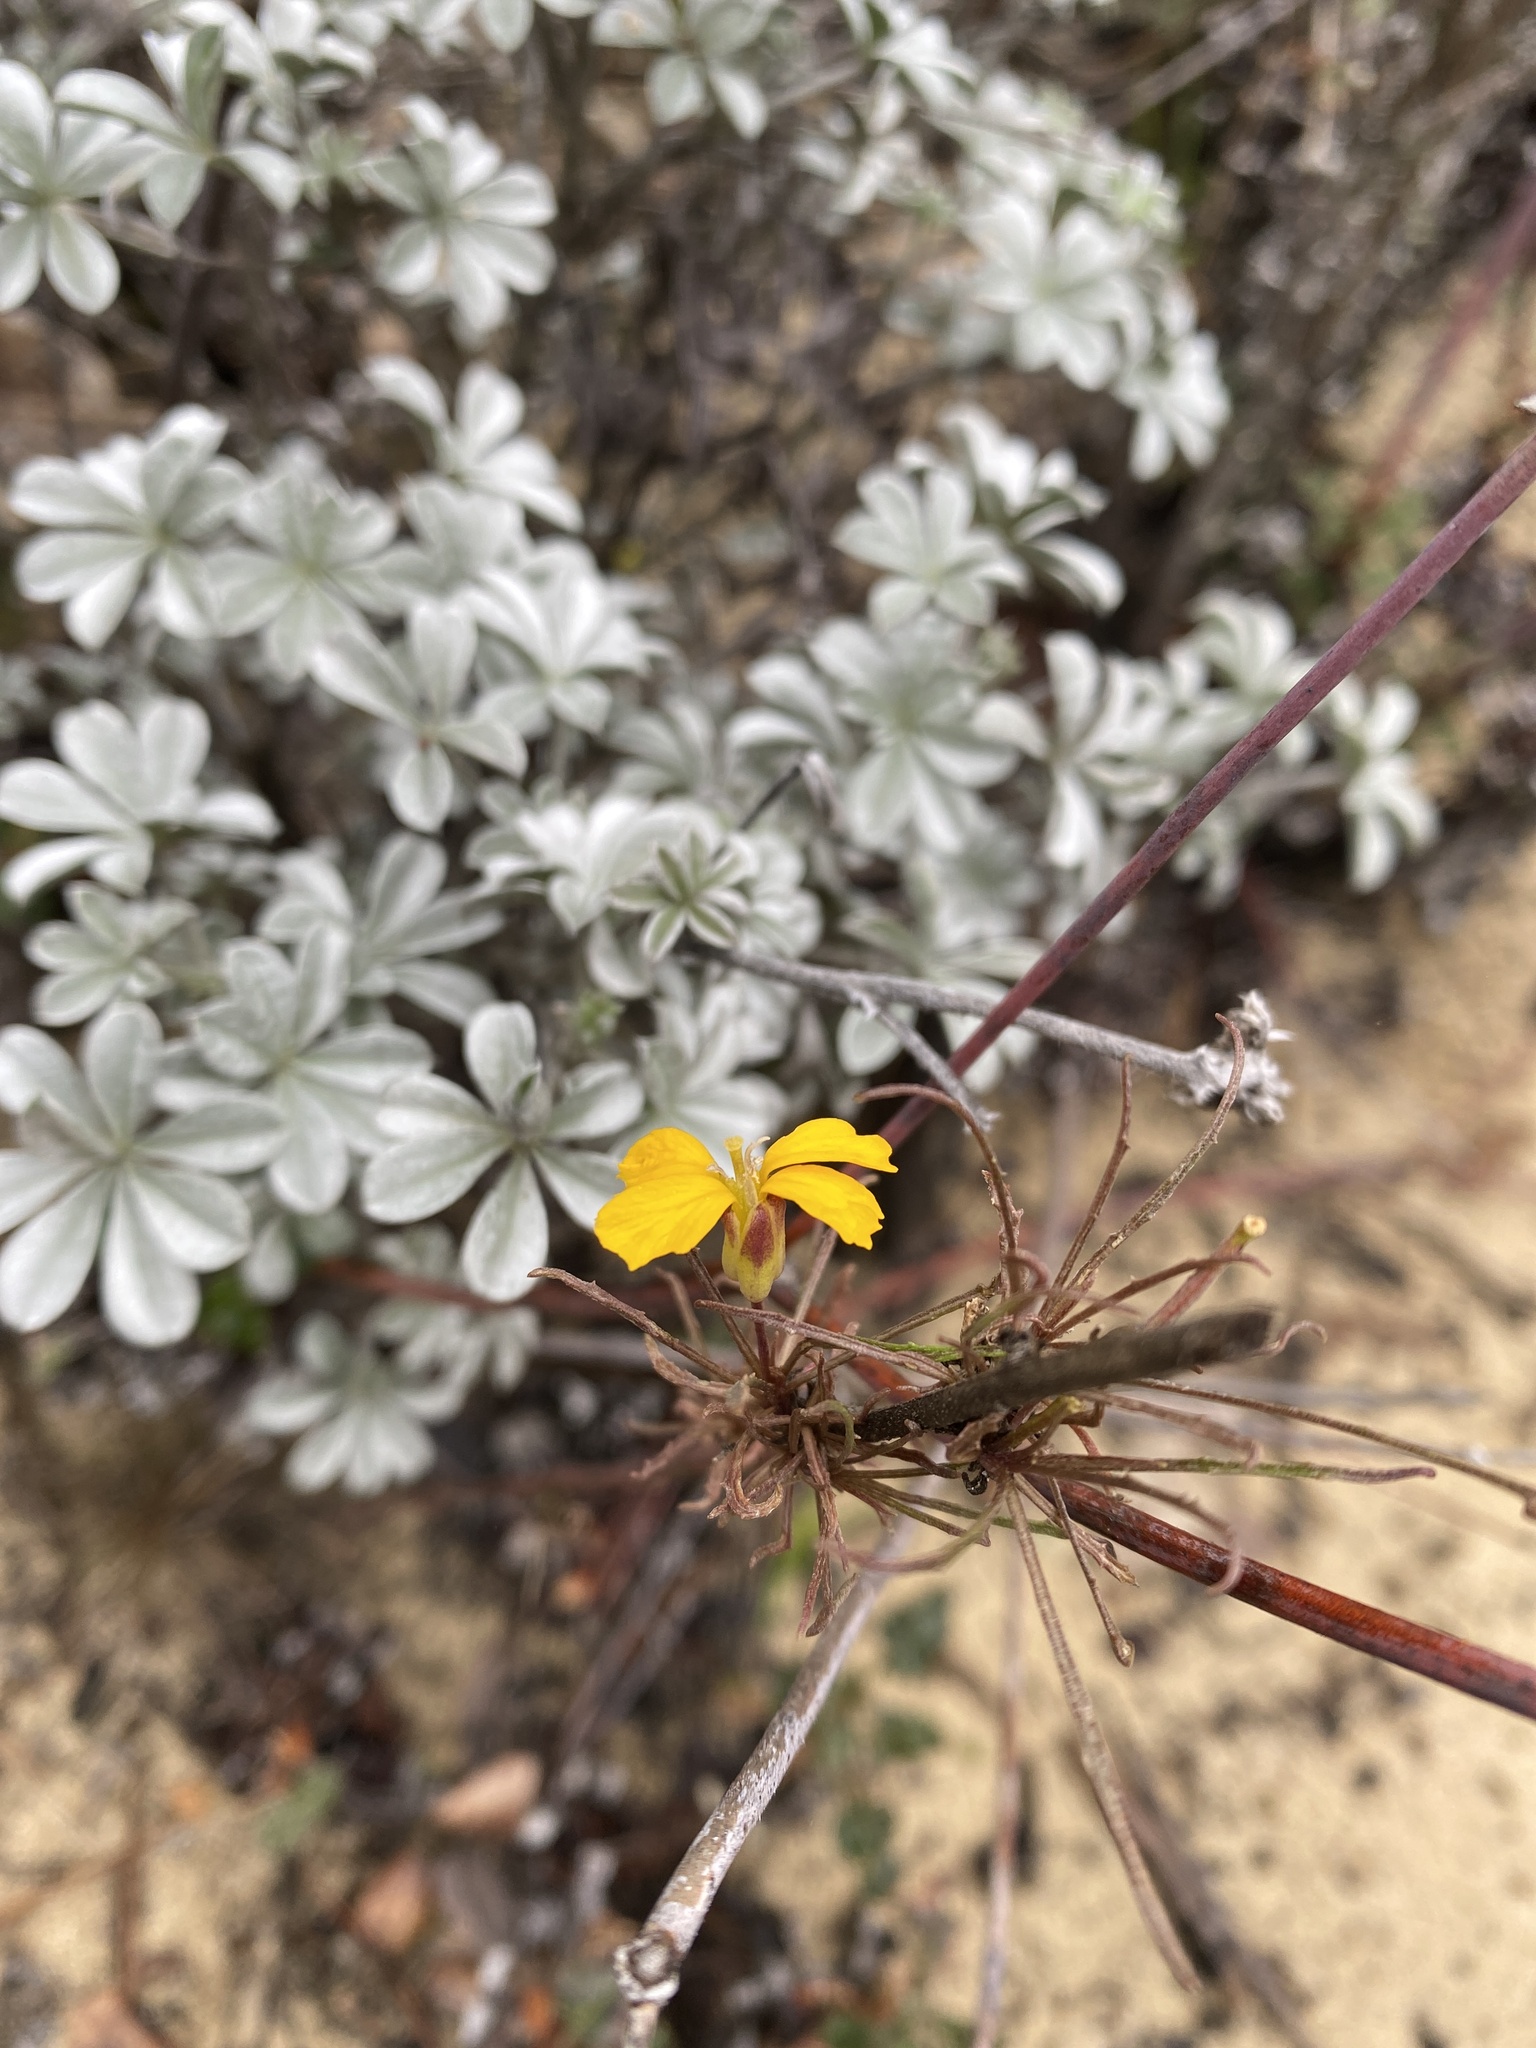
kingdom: Plantae
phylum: Tracheophyta
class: Magnoliopsida
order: Brassicales
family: Brassicaceae
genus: Erysimum
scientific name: Erysimum teretifolium
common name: Ben lomond wallflower
